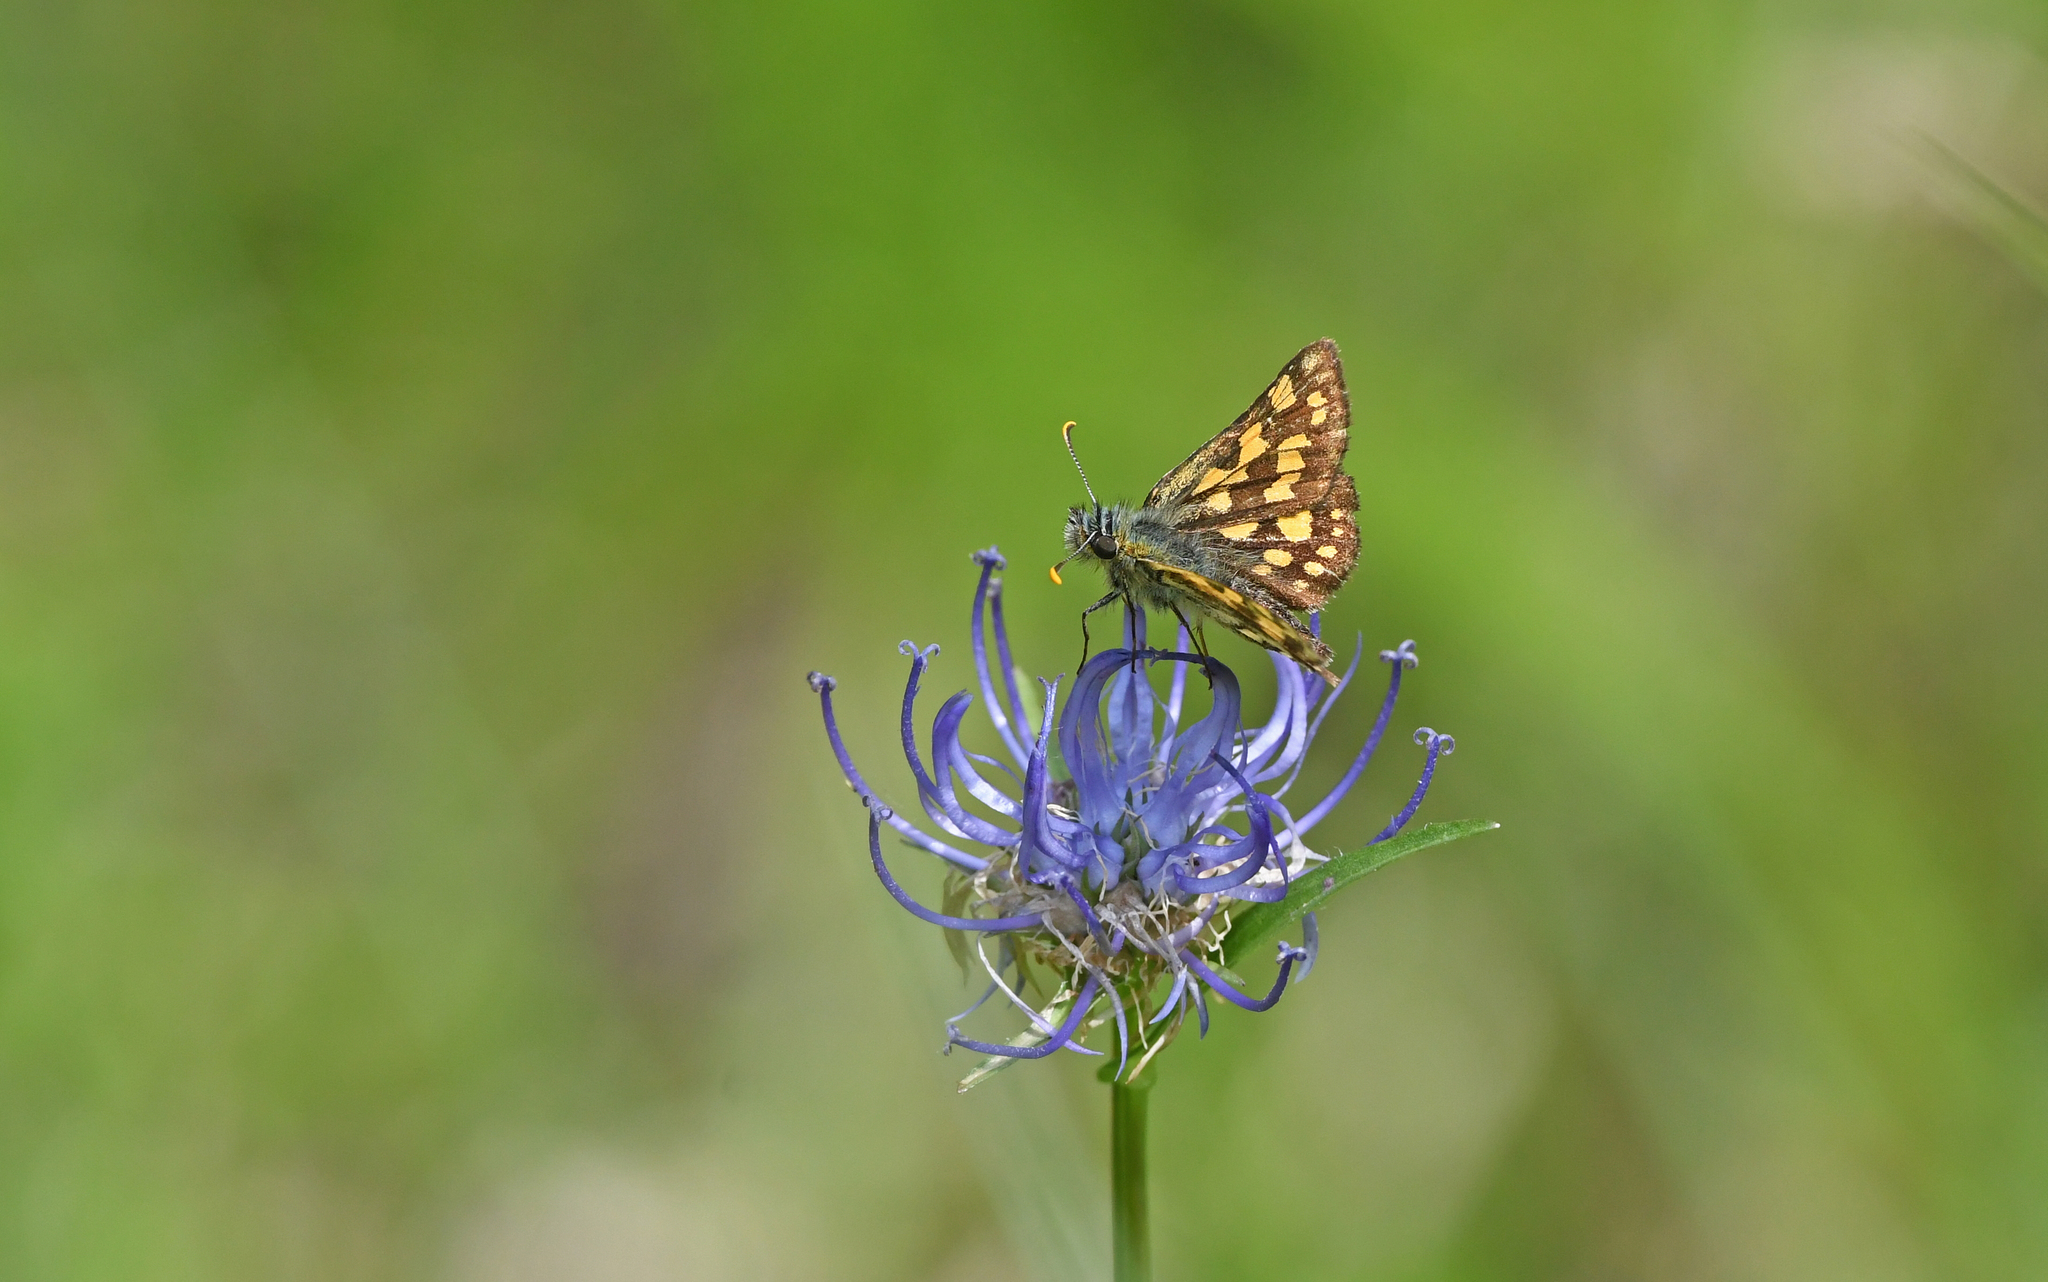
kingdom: Animalia
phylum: Arthropoda
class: Insecta
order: Lepidoptera
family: Hesperiidae
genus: Carterocephalus
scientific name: Carterocephalus palaemon
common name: Chequered skipper
